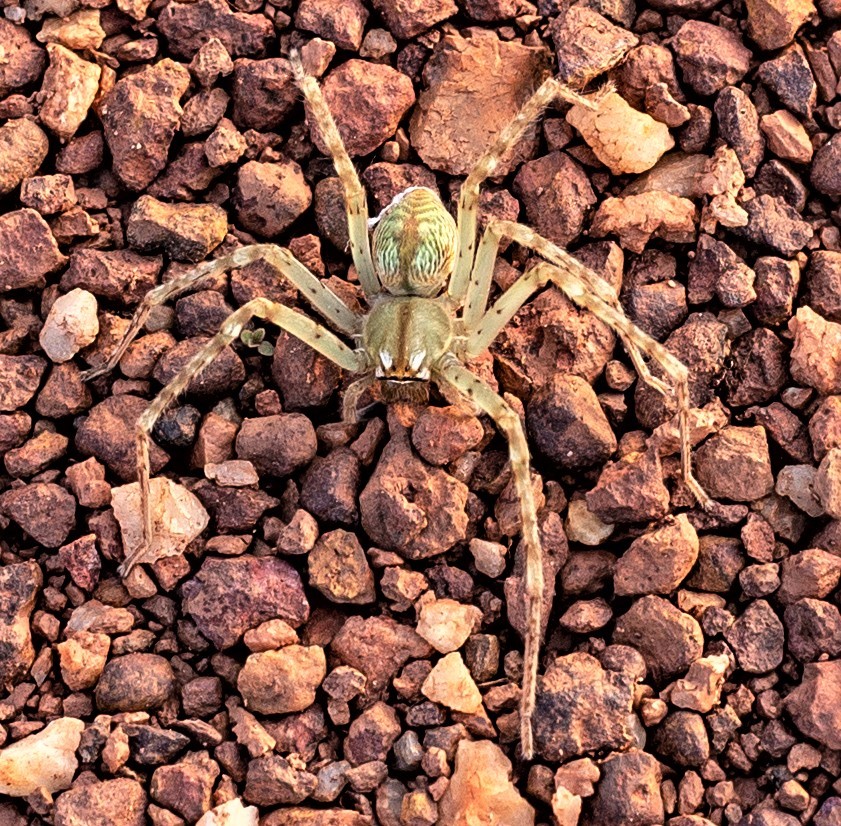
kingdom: Animalia
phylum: Arthropoda
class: Arachnida
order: Araneae
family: Sparassidae
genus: Macrinus
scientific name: Macrinus succineus
